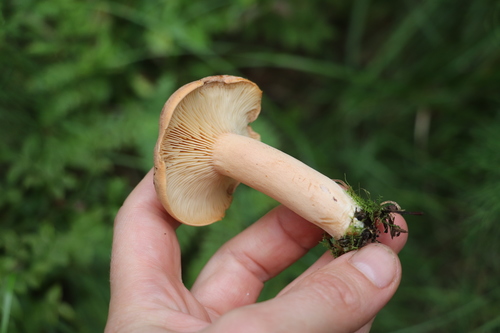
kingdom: Fungi
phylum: Basidiomycota
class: Agaricomycetes
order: Russulales
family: Russulaceae
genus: Lactarius
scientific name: Lactarius helvus
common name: Fenugreek milkcap
